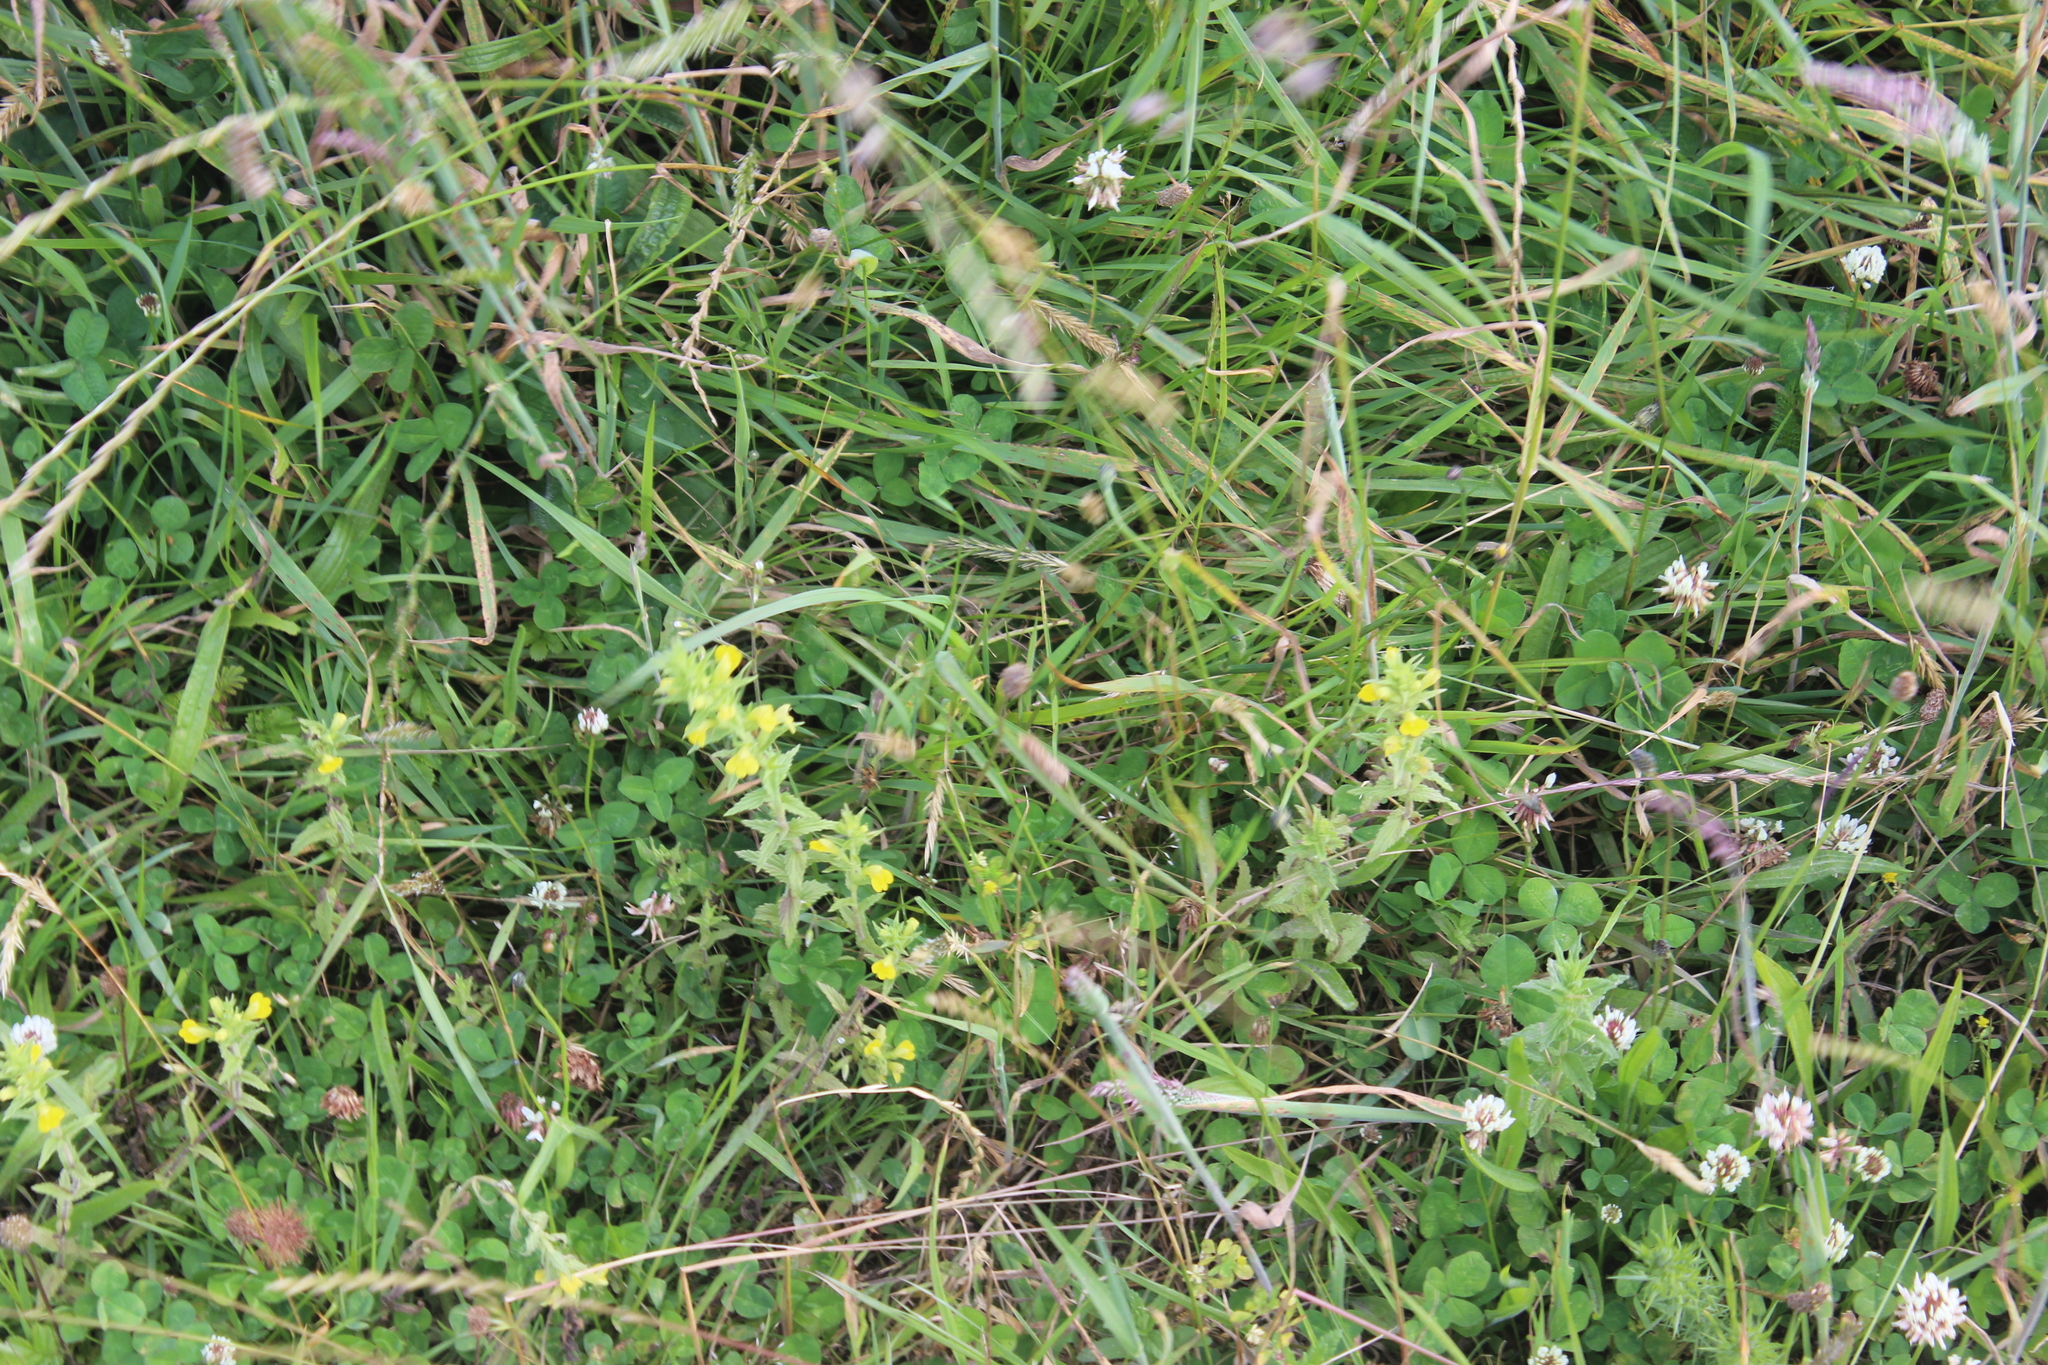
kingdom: Plantae
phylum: Tracheophyta
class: Magnoliopsida
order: Lamiales
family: Orobanchaceae
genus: Bellardia
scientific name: Bellardia viscosa
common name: Sticky parentucellia
